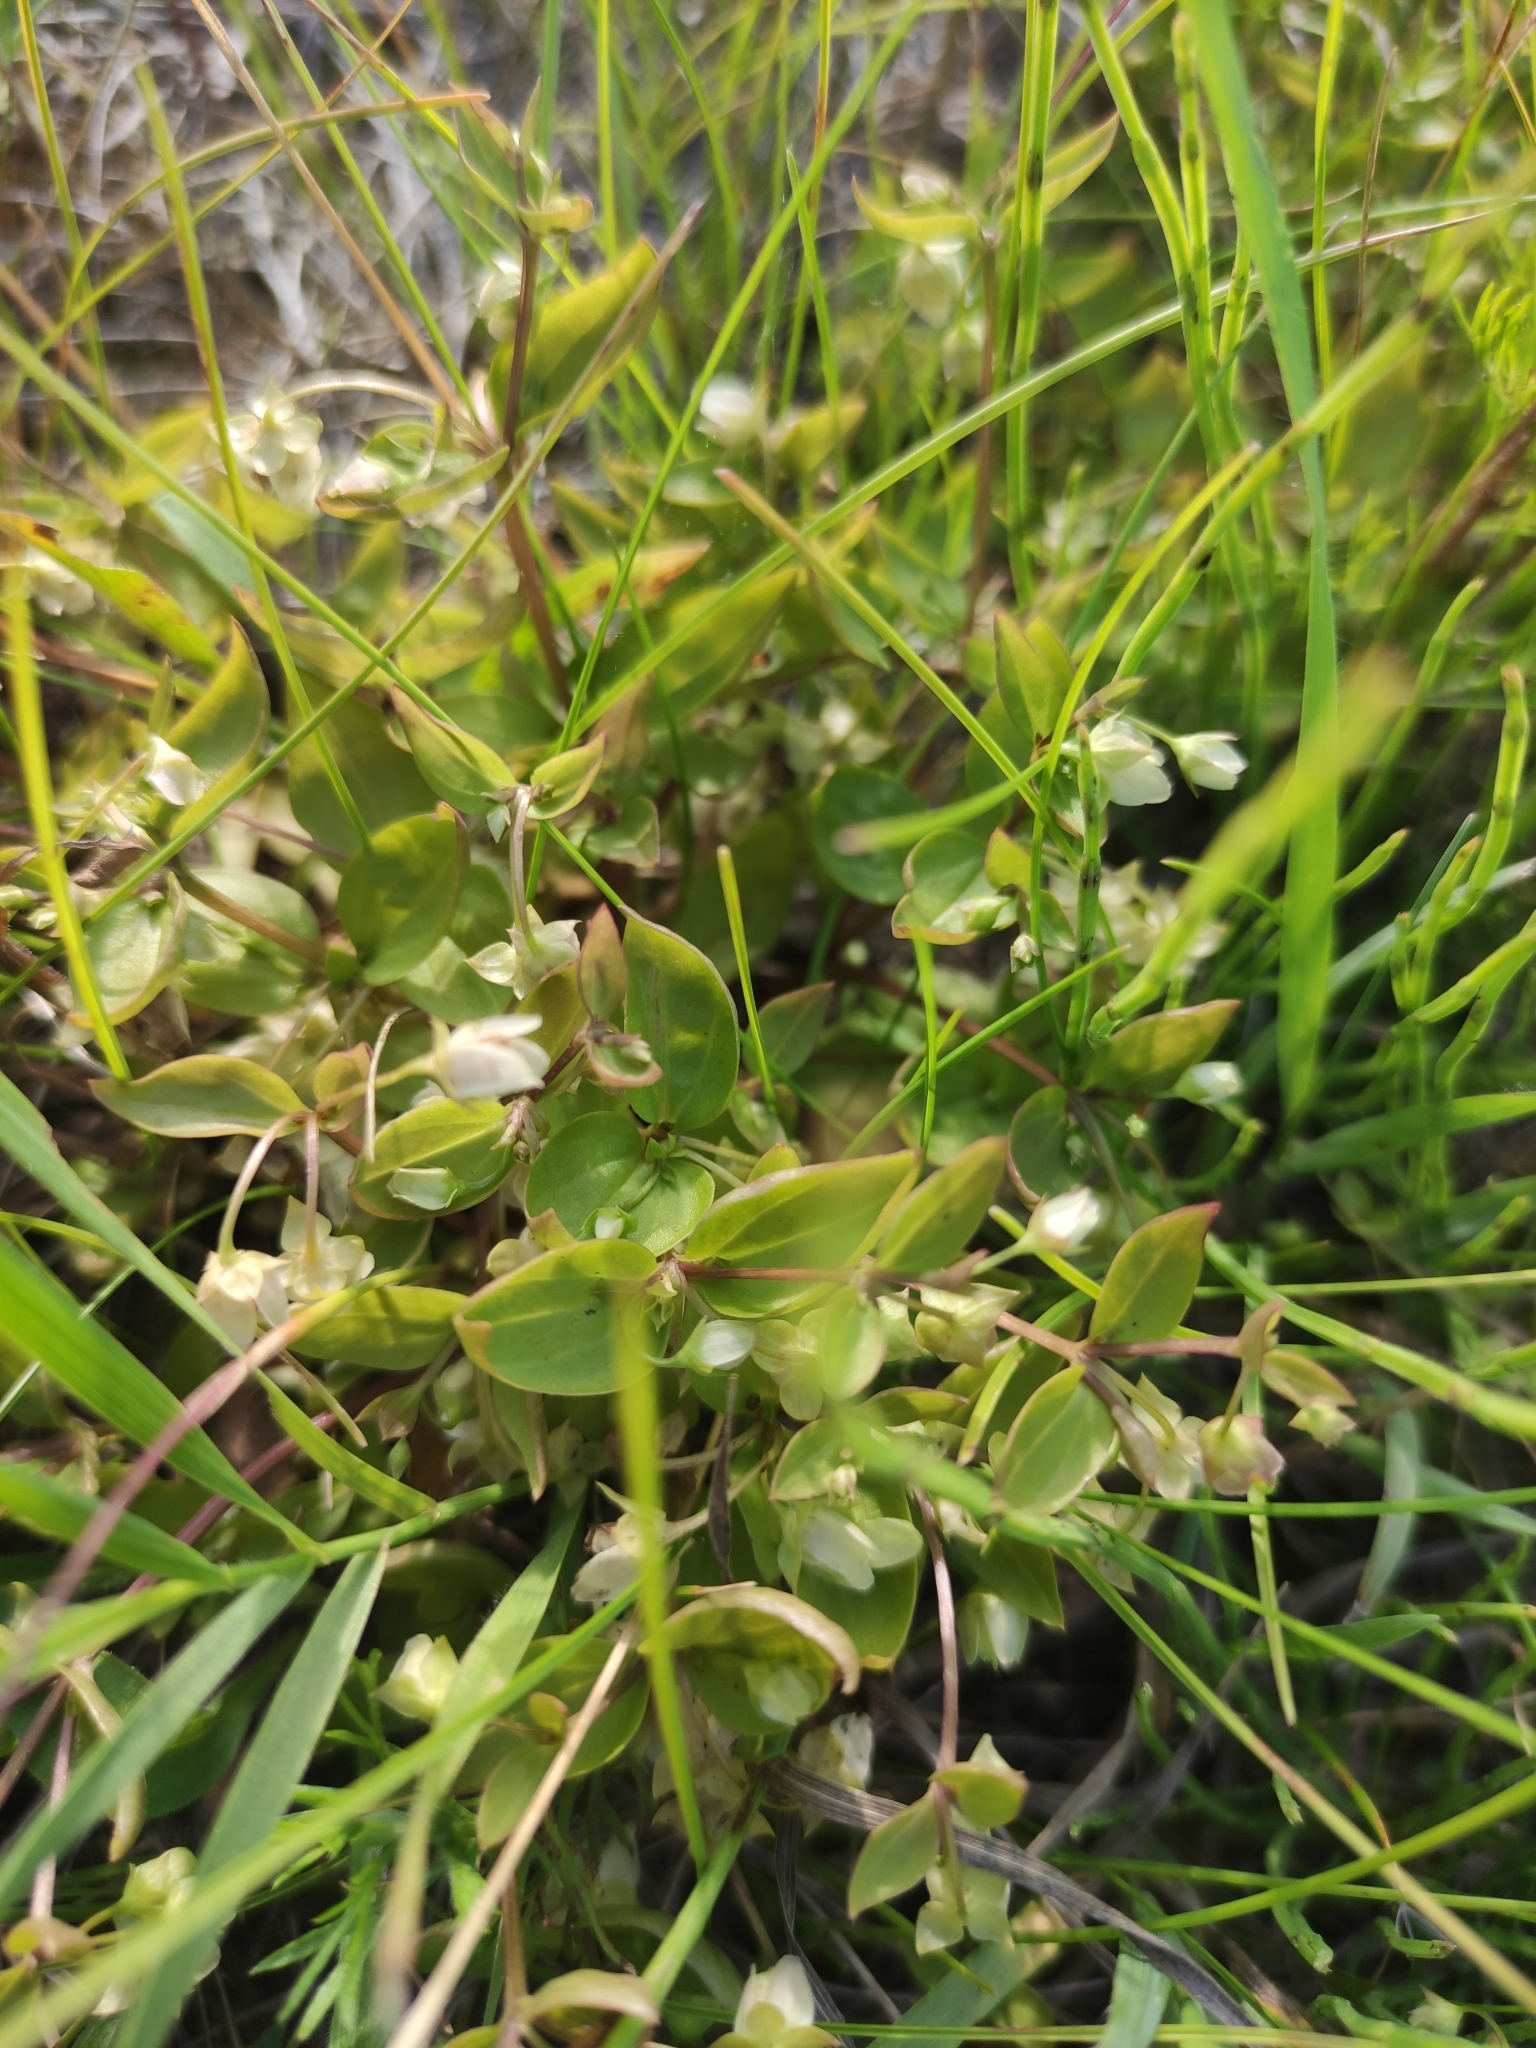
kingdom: Plantae
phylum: Tracheophyta
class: Magnoliopsida
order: Gentianales
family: Gentianaceae
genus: Swertia
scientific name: Swertia dichotoma
